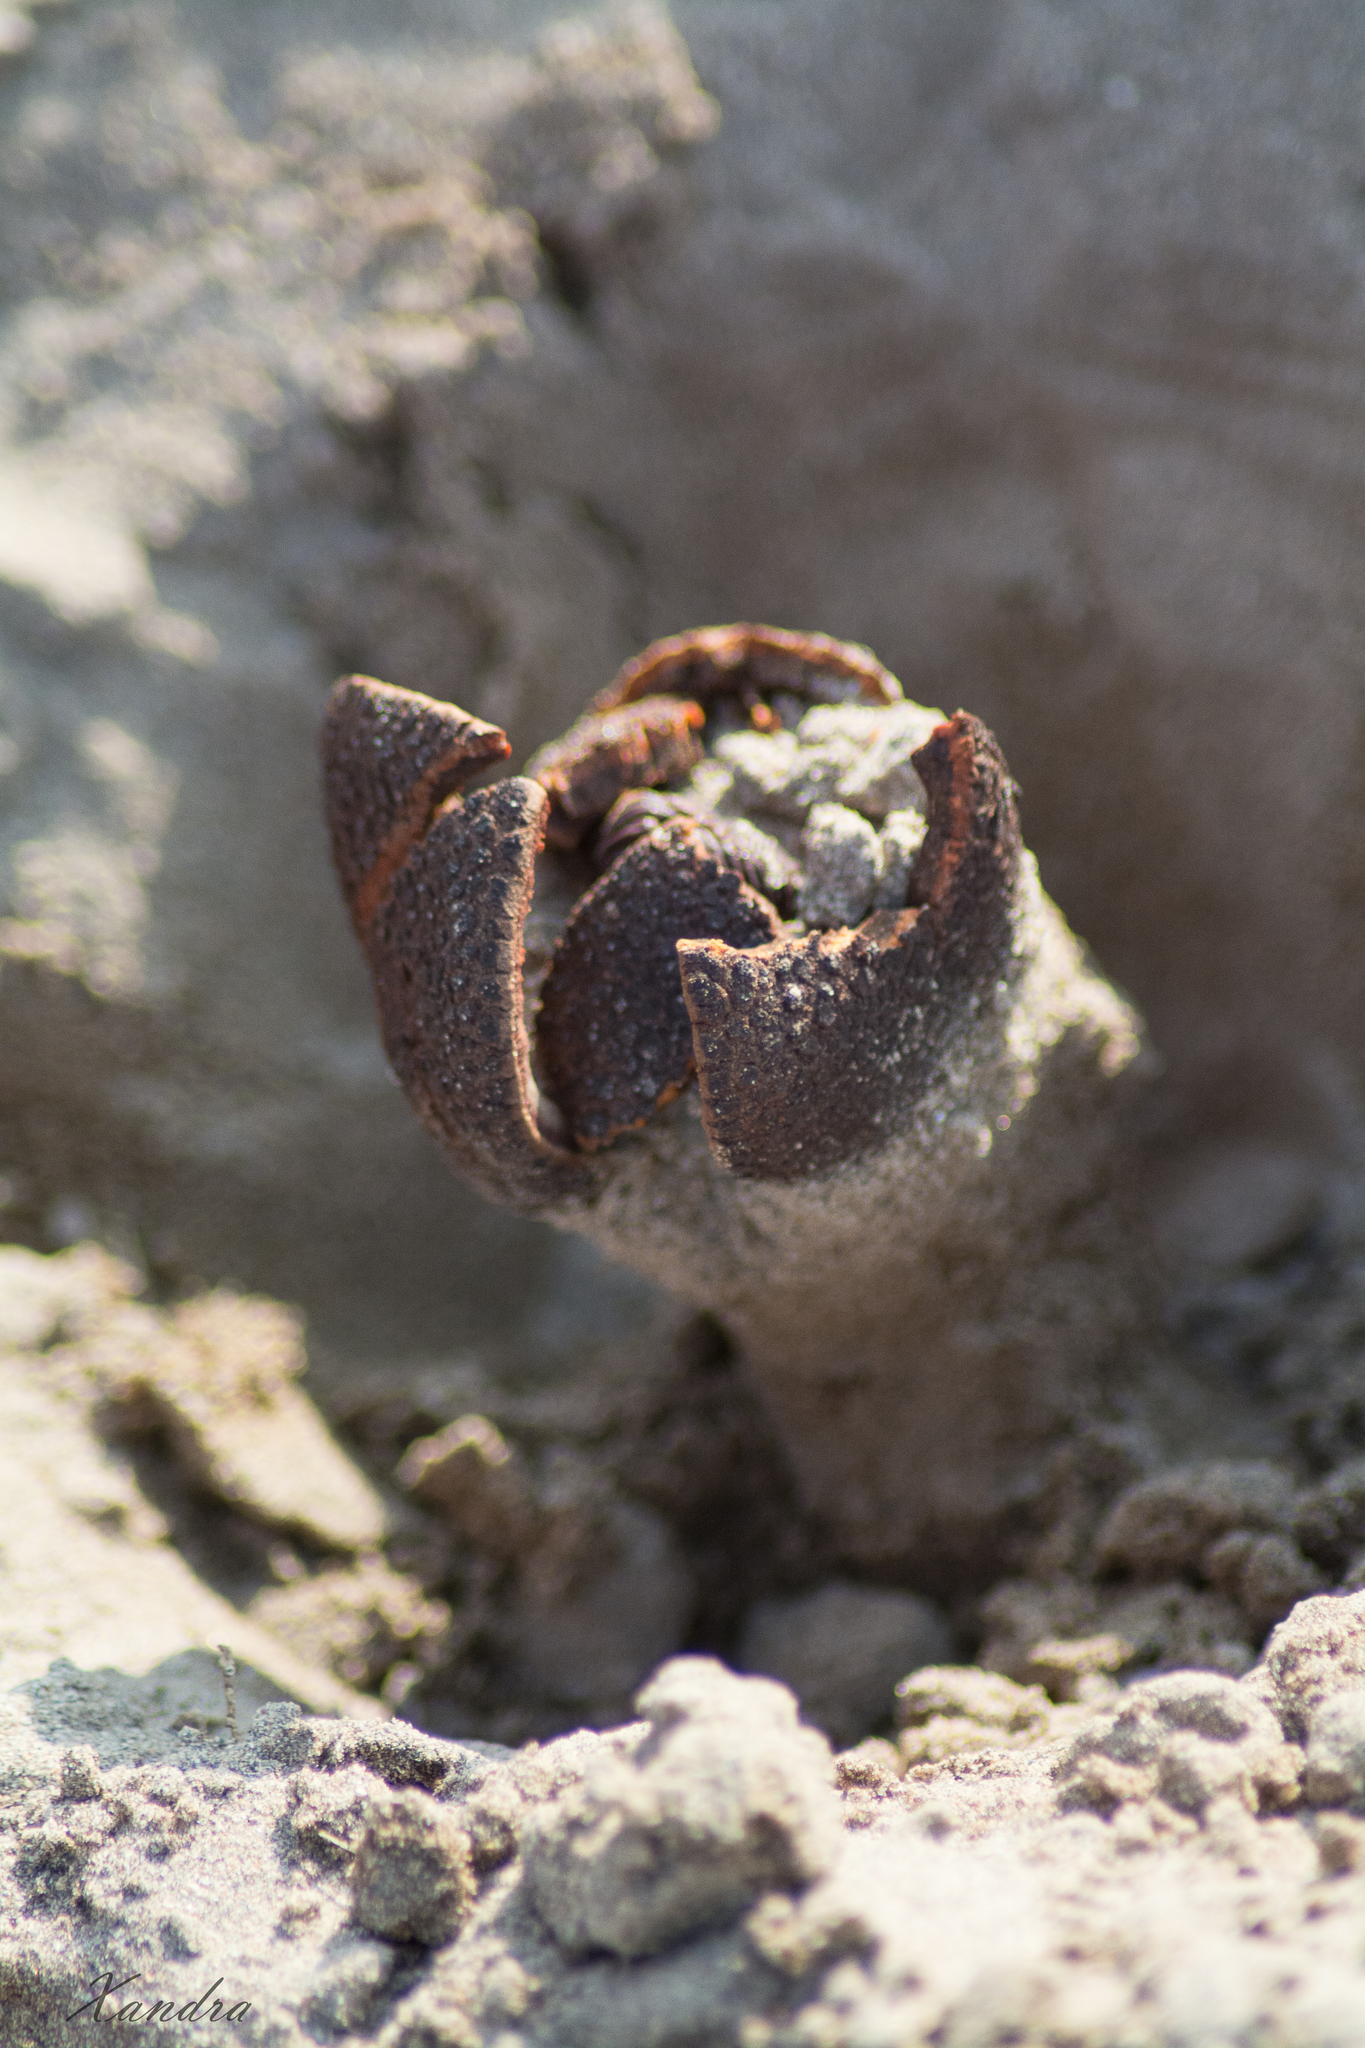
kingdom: Plantae
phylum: Tracheophyta
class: Magnoliopsida
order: Piperales
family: Hydnoraceae
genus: Prosopanche
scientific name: Prosopanche americana
